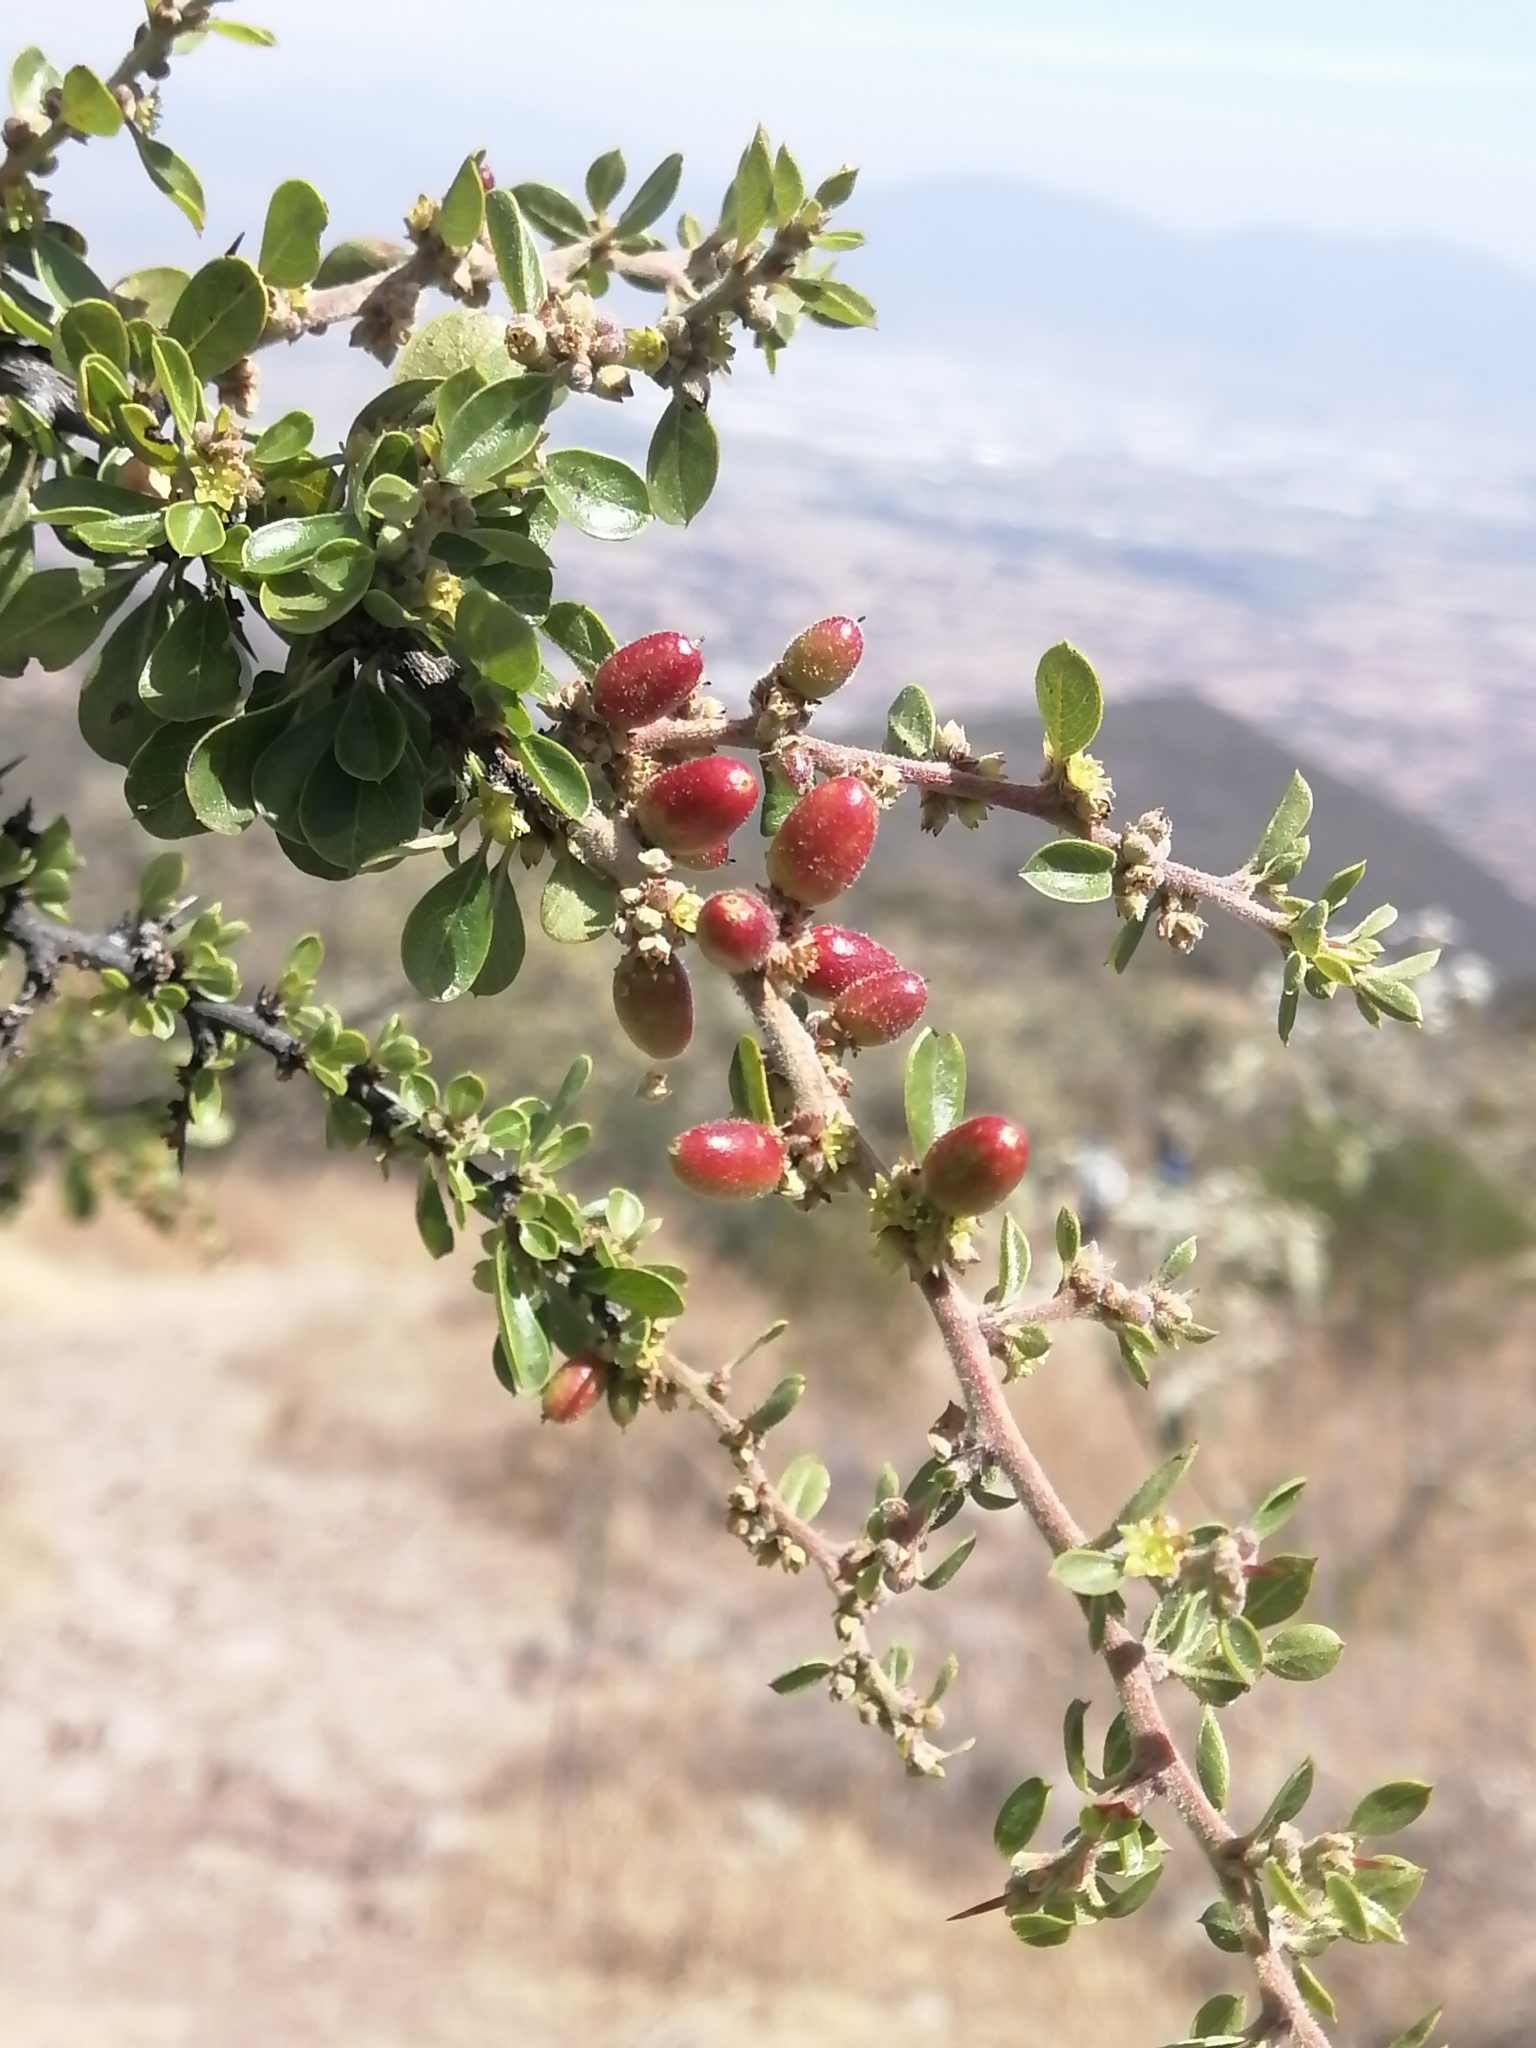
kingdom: Plantae
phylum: Tracheophyta
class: Magnoliopsida
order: Rosales
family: Rhamnaceae
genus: Condalia
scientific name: Condalia velutina
